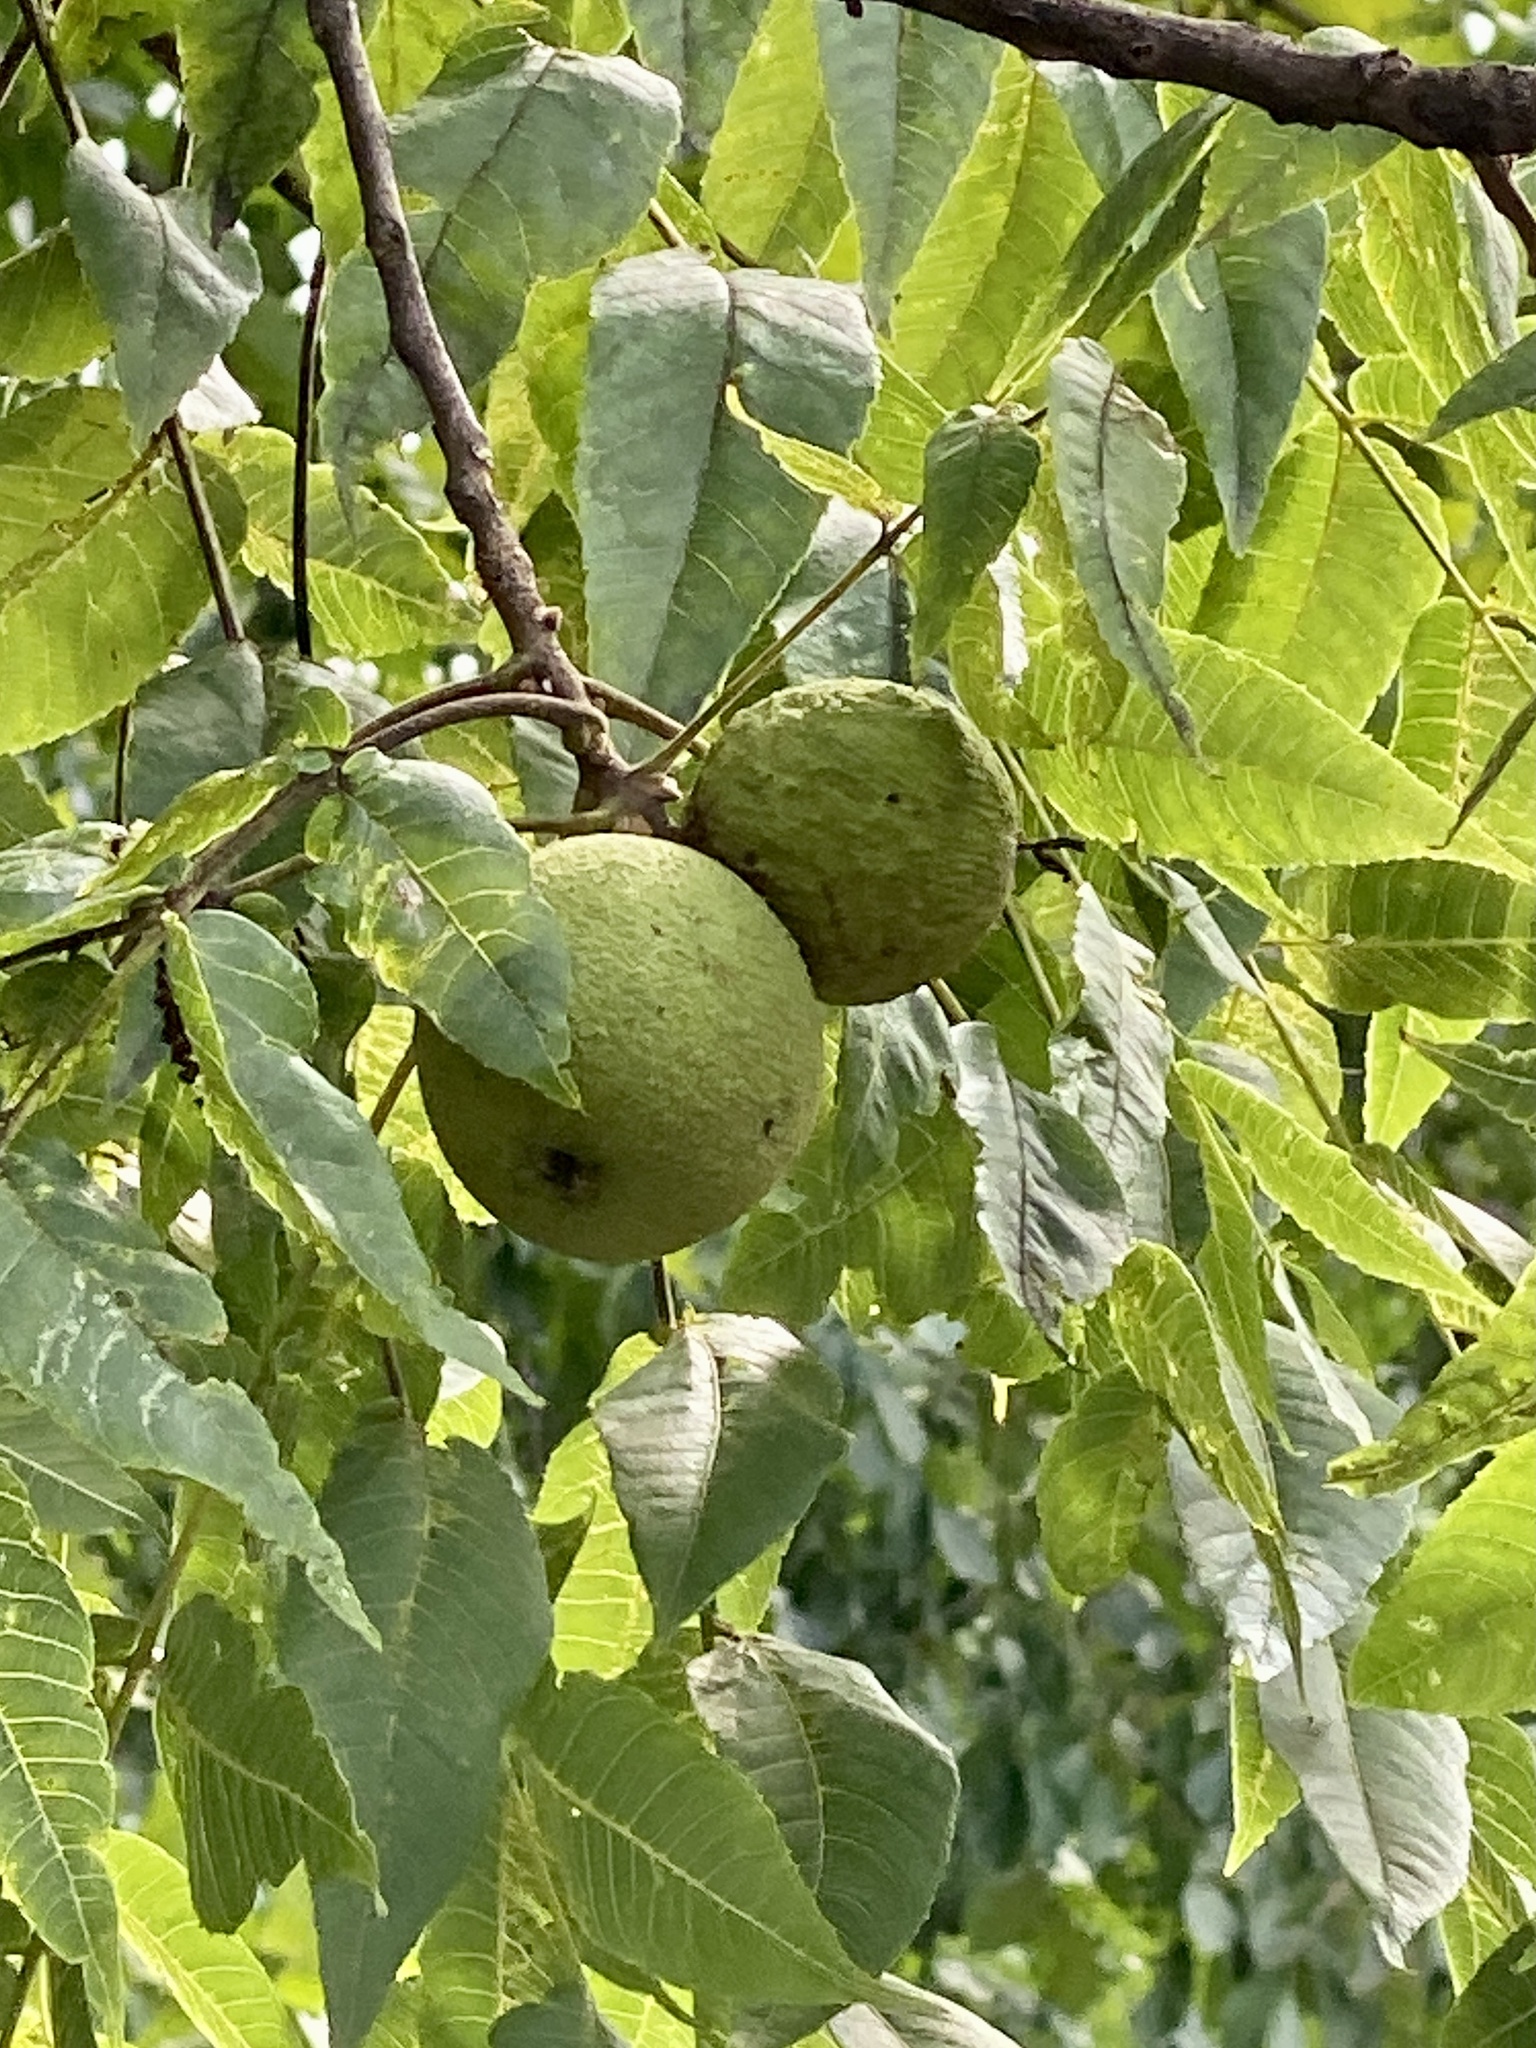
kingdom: Plantae
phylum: Tracheophyta
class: Magnoliopsida
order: Fagales
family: Juglandaceae
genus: Juglans
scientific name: Juglans nigra
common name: Black walnut
